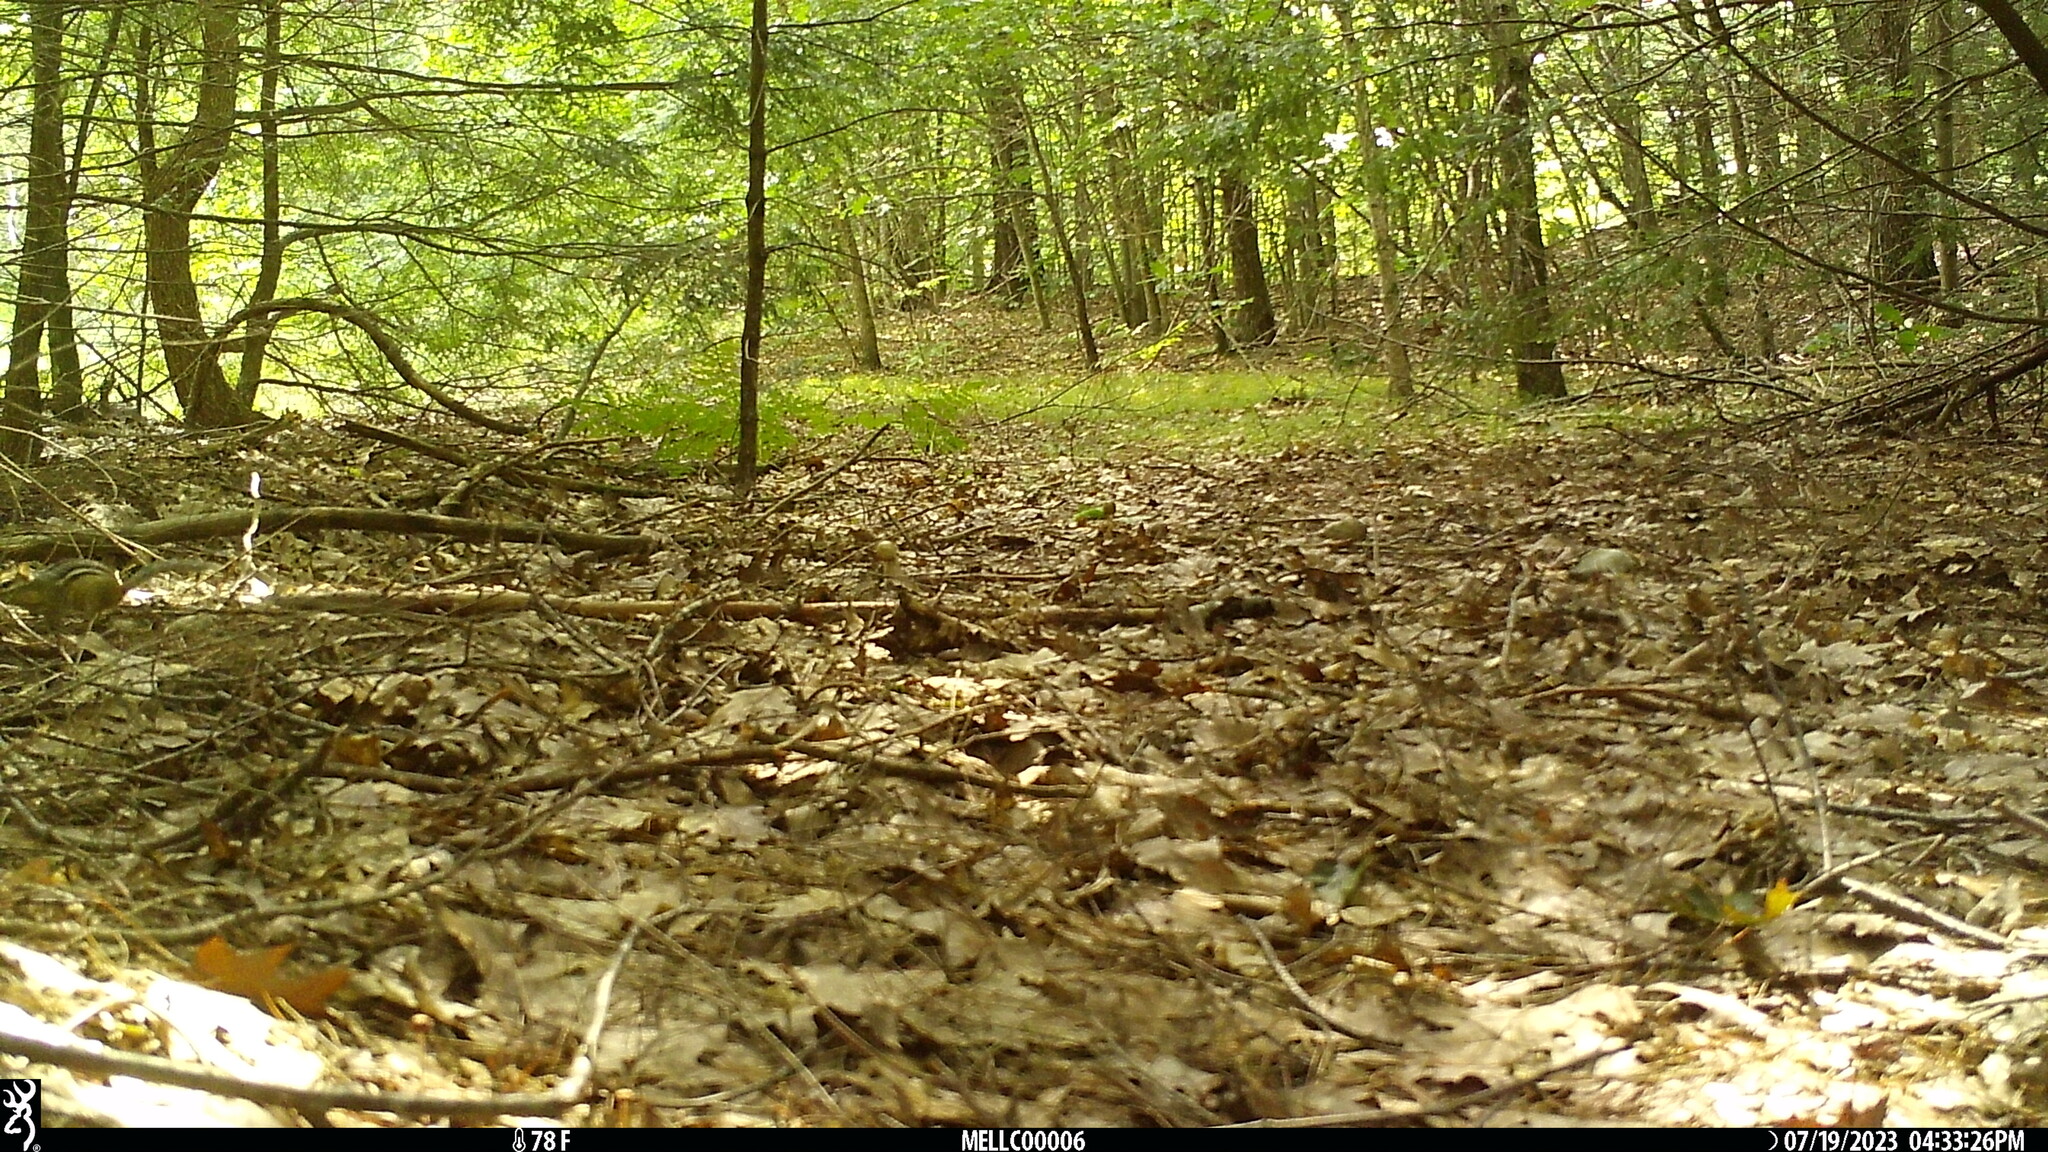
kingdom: Animalia
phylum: Chordata
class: Mammalia
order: Rodentia
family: Sciuridae
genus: Tamias
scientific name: Tamias striatus
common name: Eastern chipmunk
